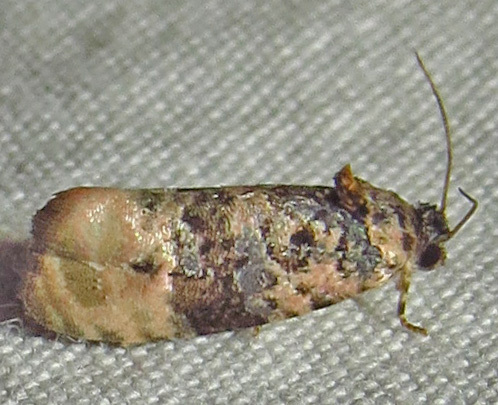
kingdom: Animalia
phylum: Arthropoda
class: Insecta
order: Lepidoptera
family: Tortricidae
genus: Hedya
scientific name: Hedya separatana
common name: Pink-washed leafroller moth
